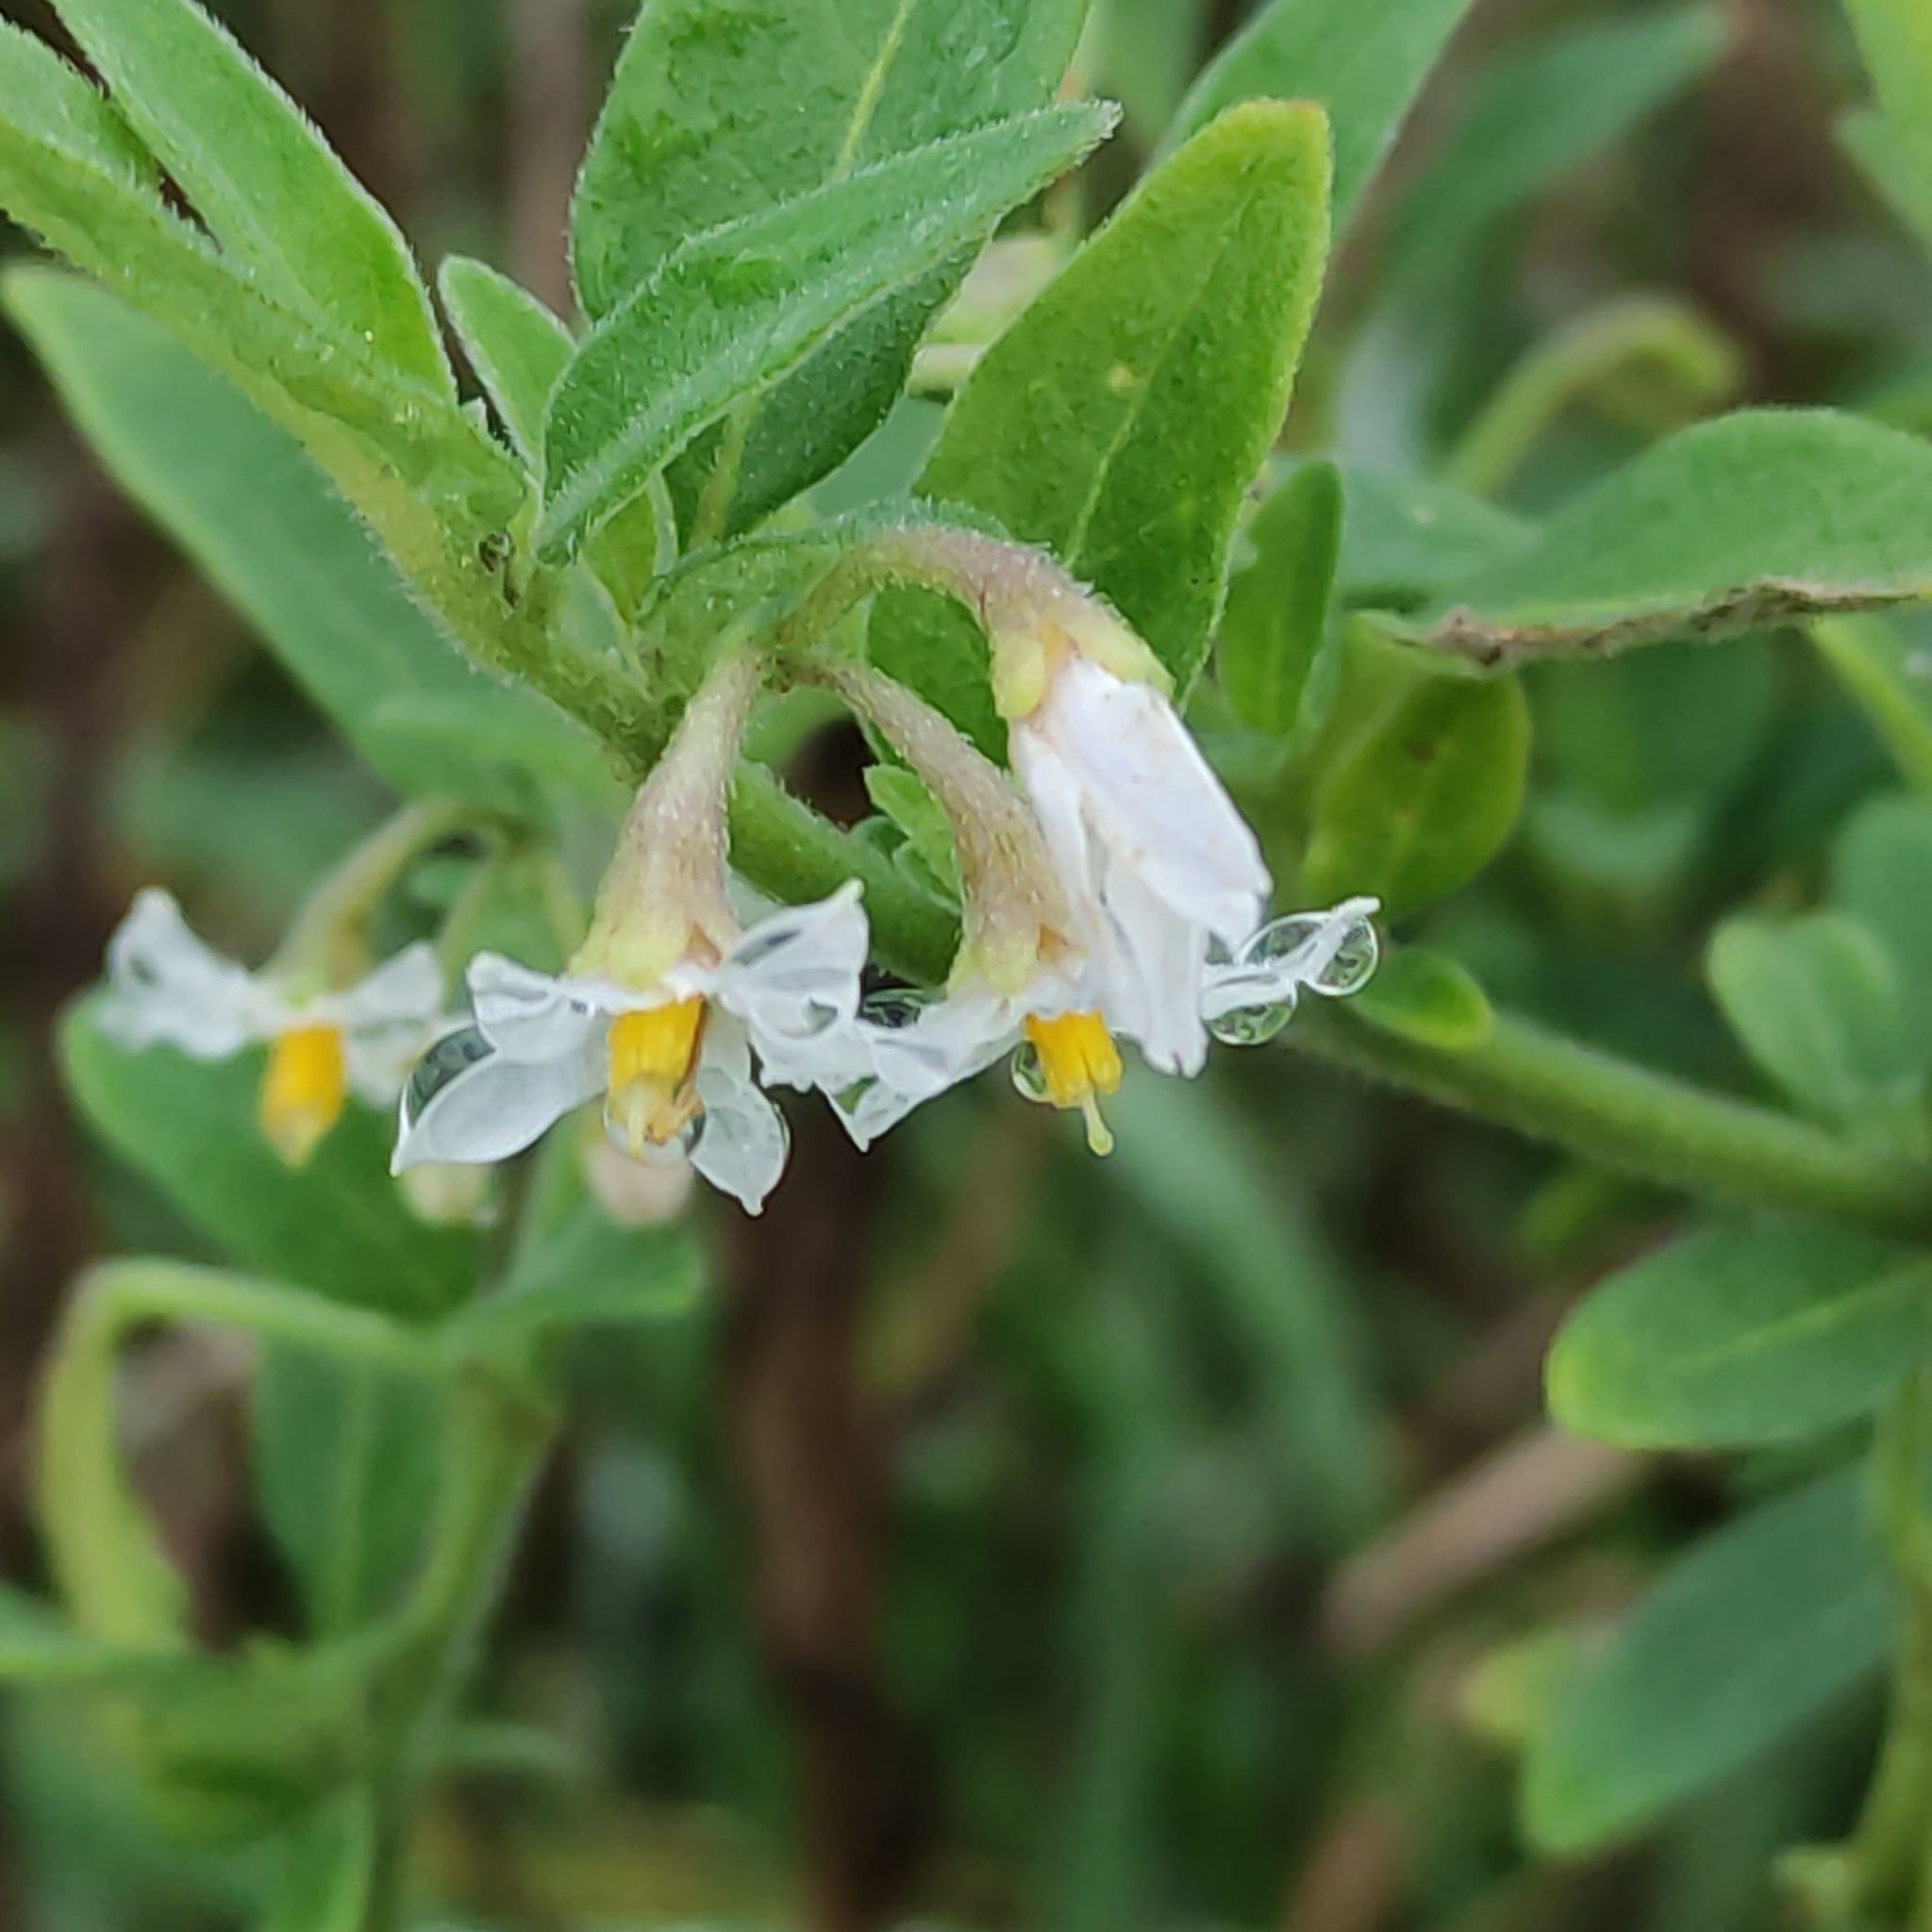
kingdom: Plantae
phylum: Tracheophyta
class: Magnoliopsida
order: Solanales
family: Solanaceae
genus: Solanum
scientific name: Solanum chenopodioides
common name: Tall nightshade
